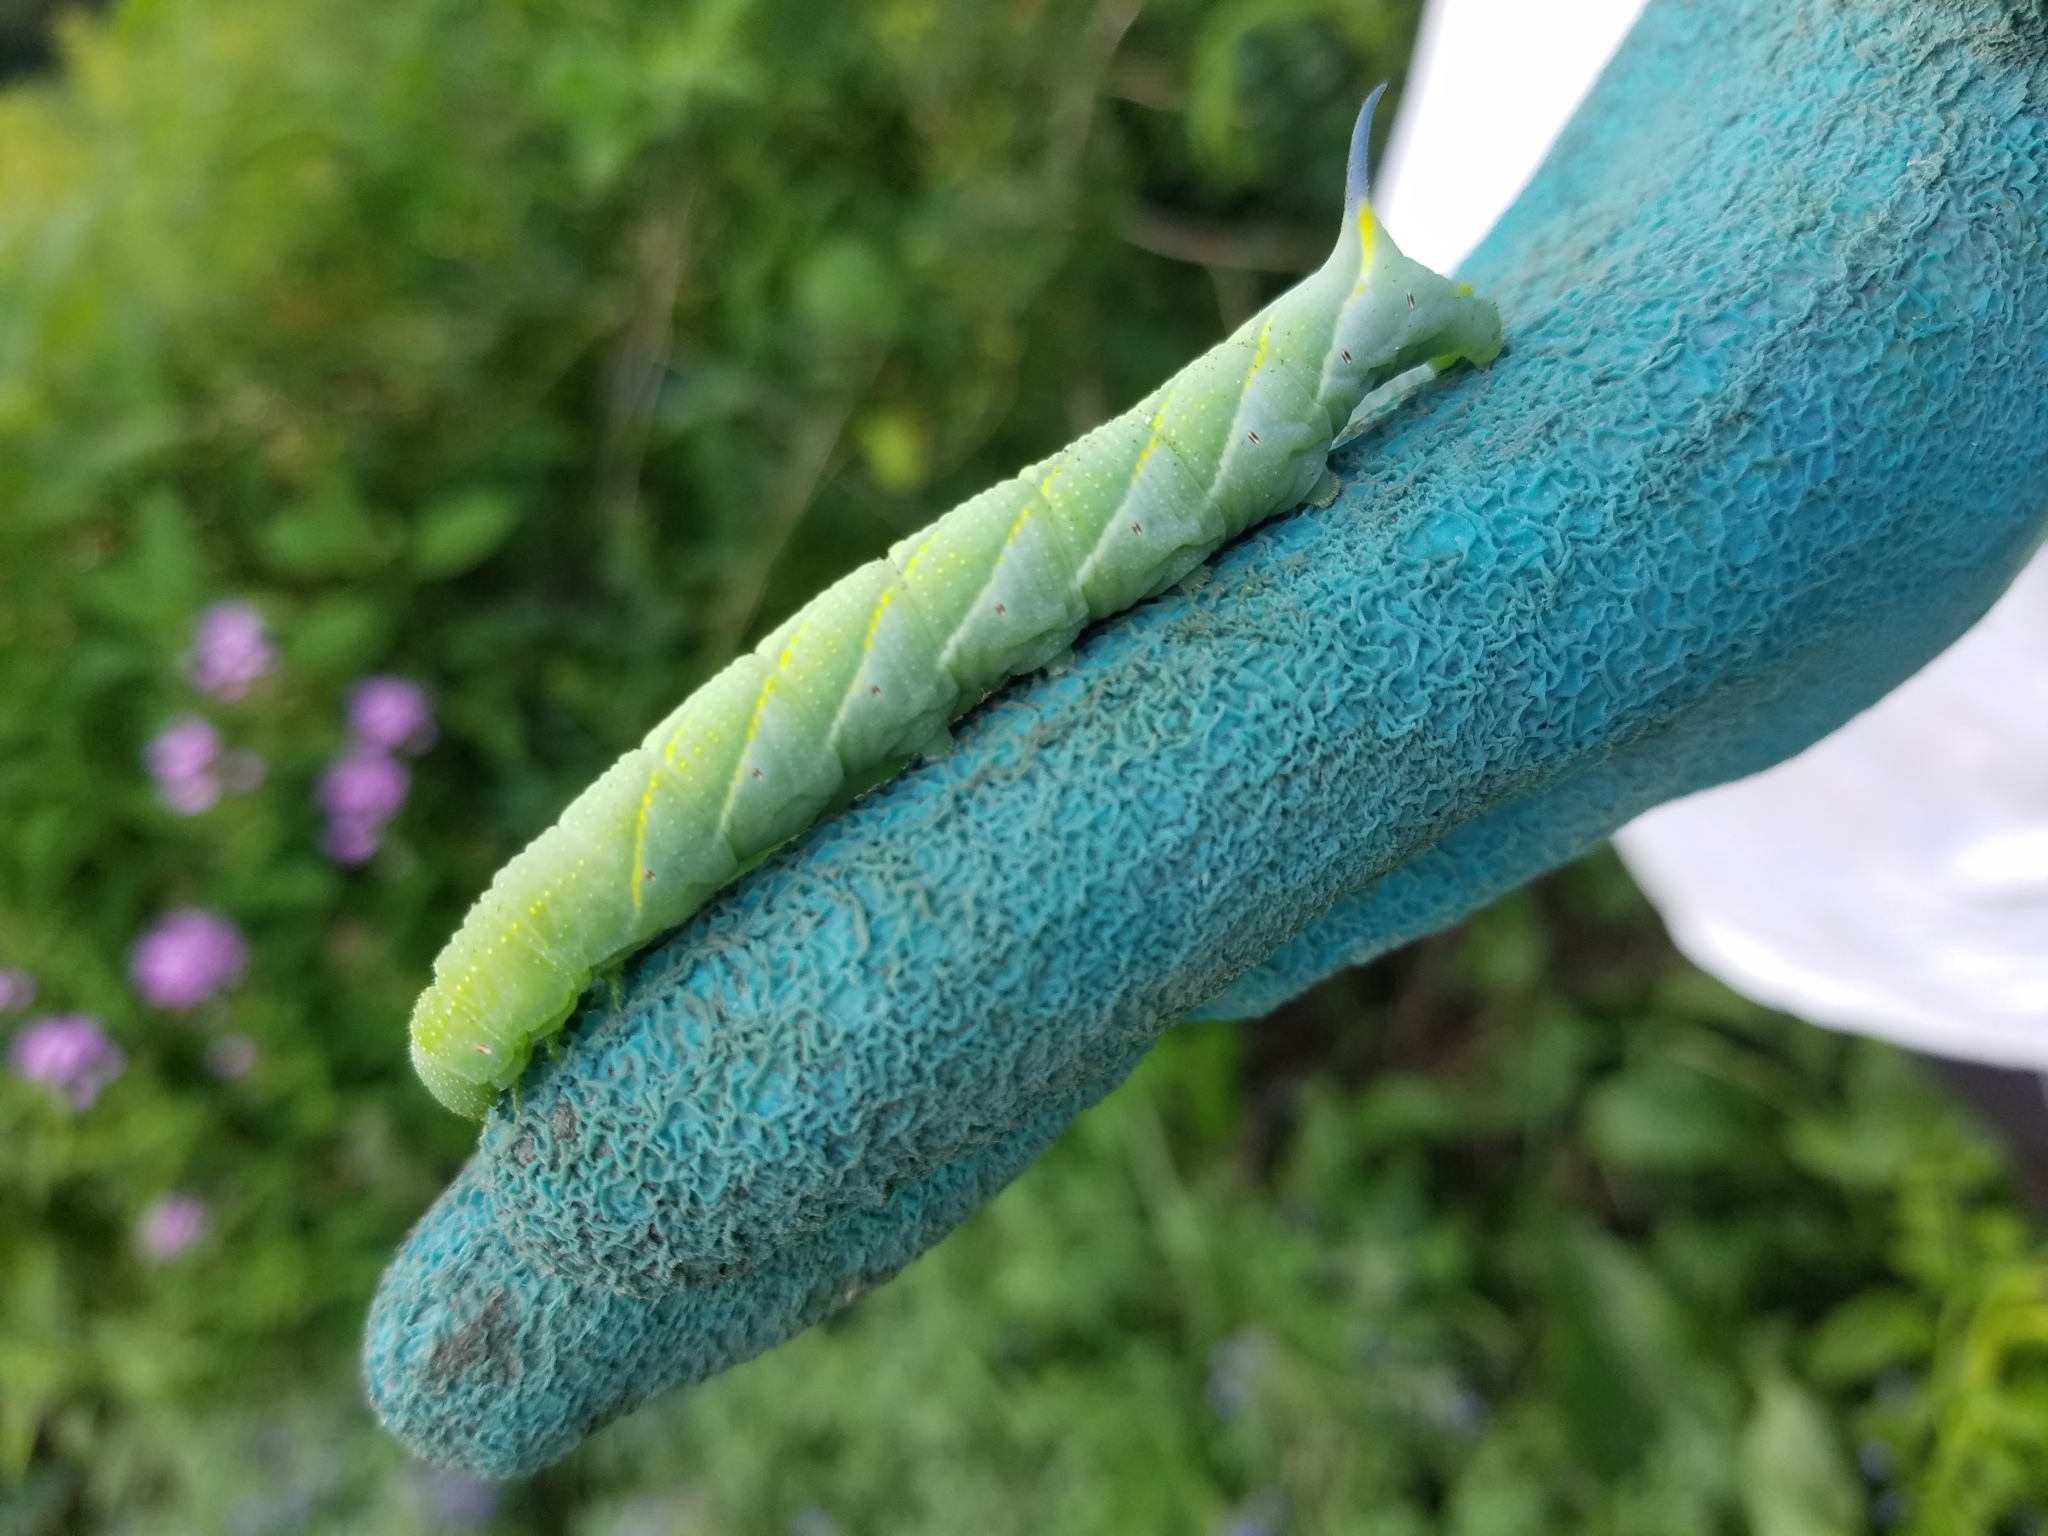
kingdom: Animalia
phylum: Arthropoda
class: Insecta
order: Lepidoptera
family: Sphingidae
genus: Paratrea
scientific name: Paratrea plebeja
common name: Plebian sphinx
